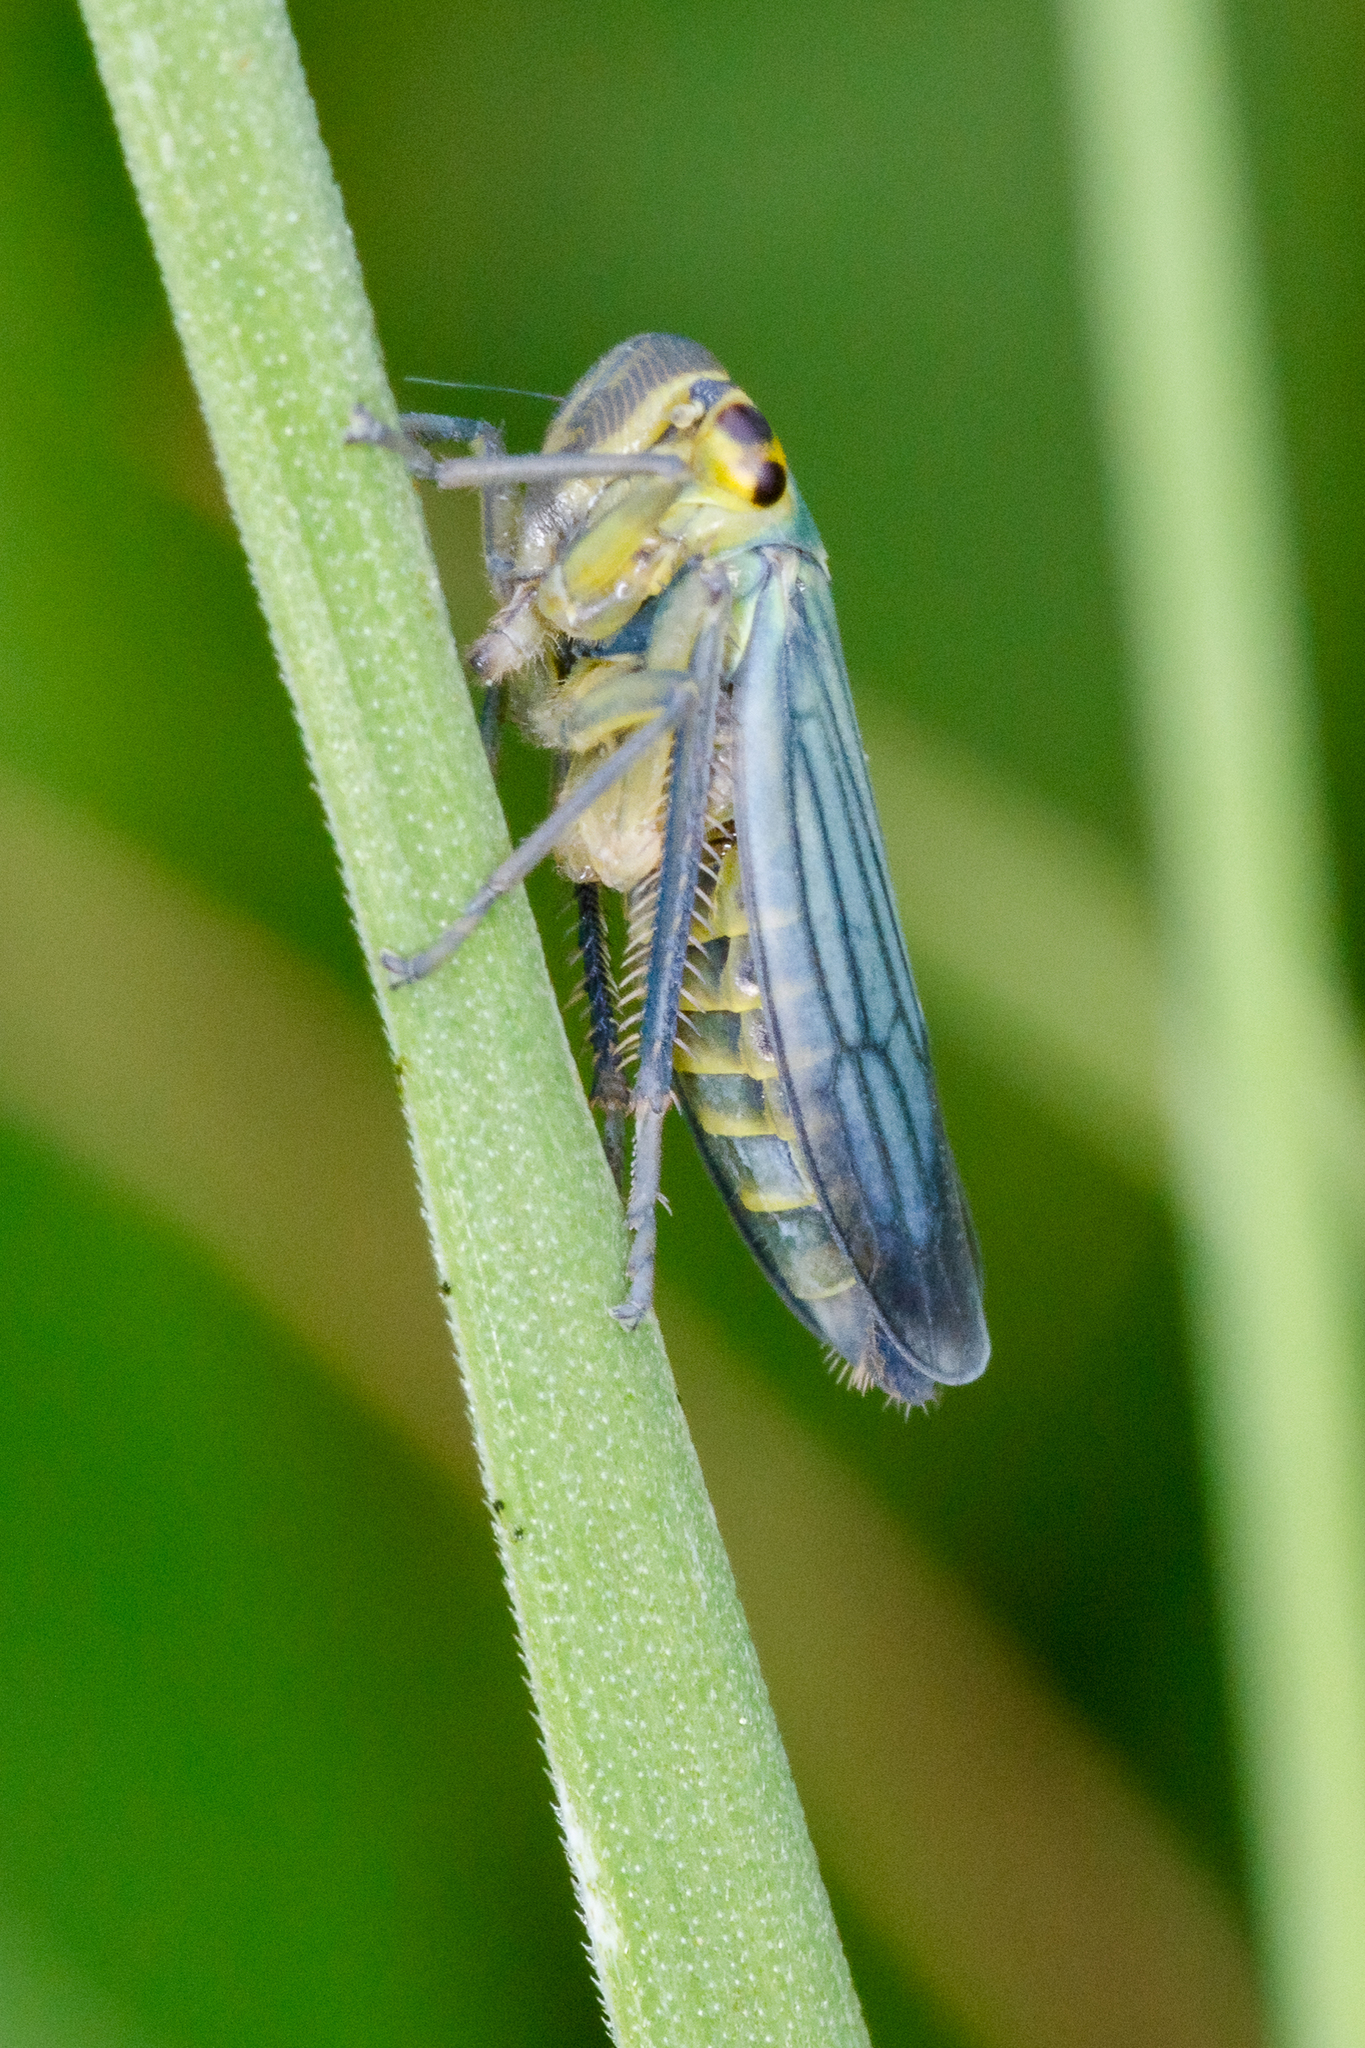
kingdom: Animalia
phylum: Arthropoda
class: Insecta
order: Hemiptera
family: Cicadellidae
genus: Cicadella
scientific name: Cicadella viridis
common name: Leafhopper
